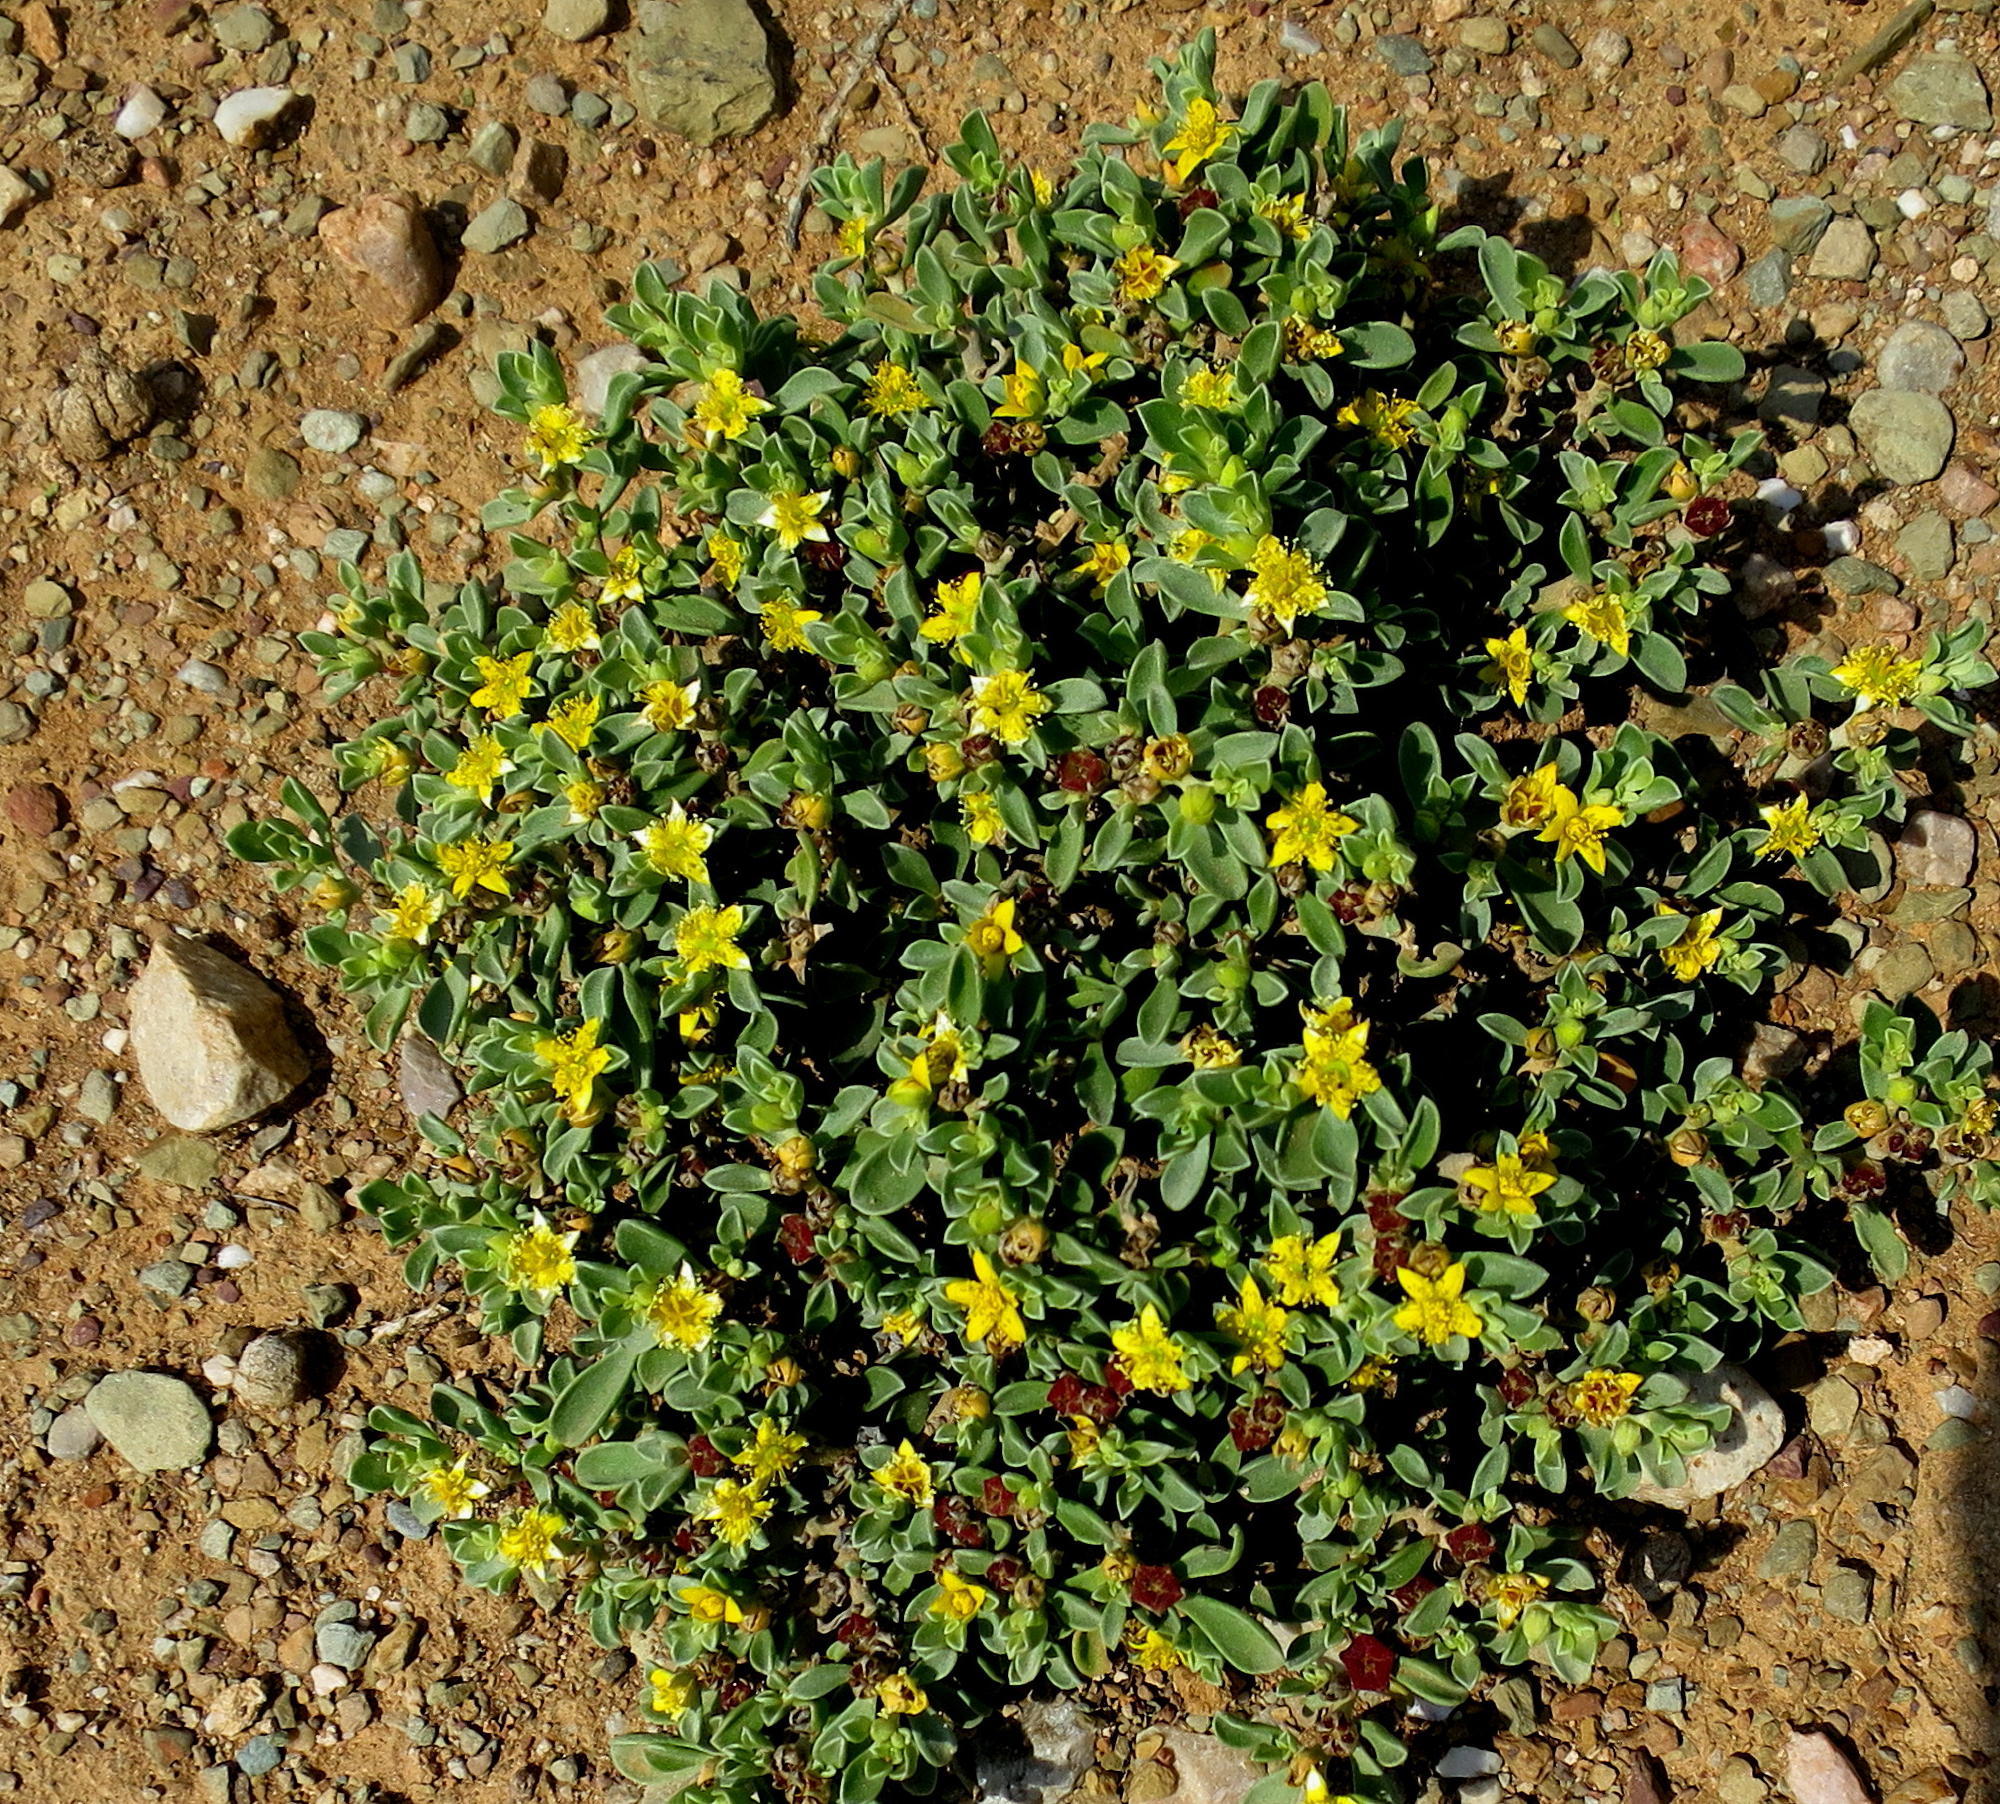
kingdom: Plantae
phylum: Tracheophyta
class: Magnoliopsida
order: Caryophyllales
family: Aizoaceae
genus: Aizoon
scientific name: Aizoon rigidum
